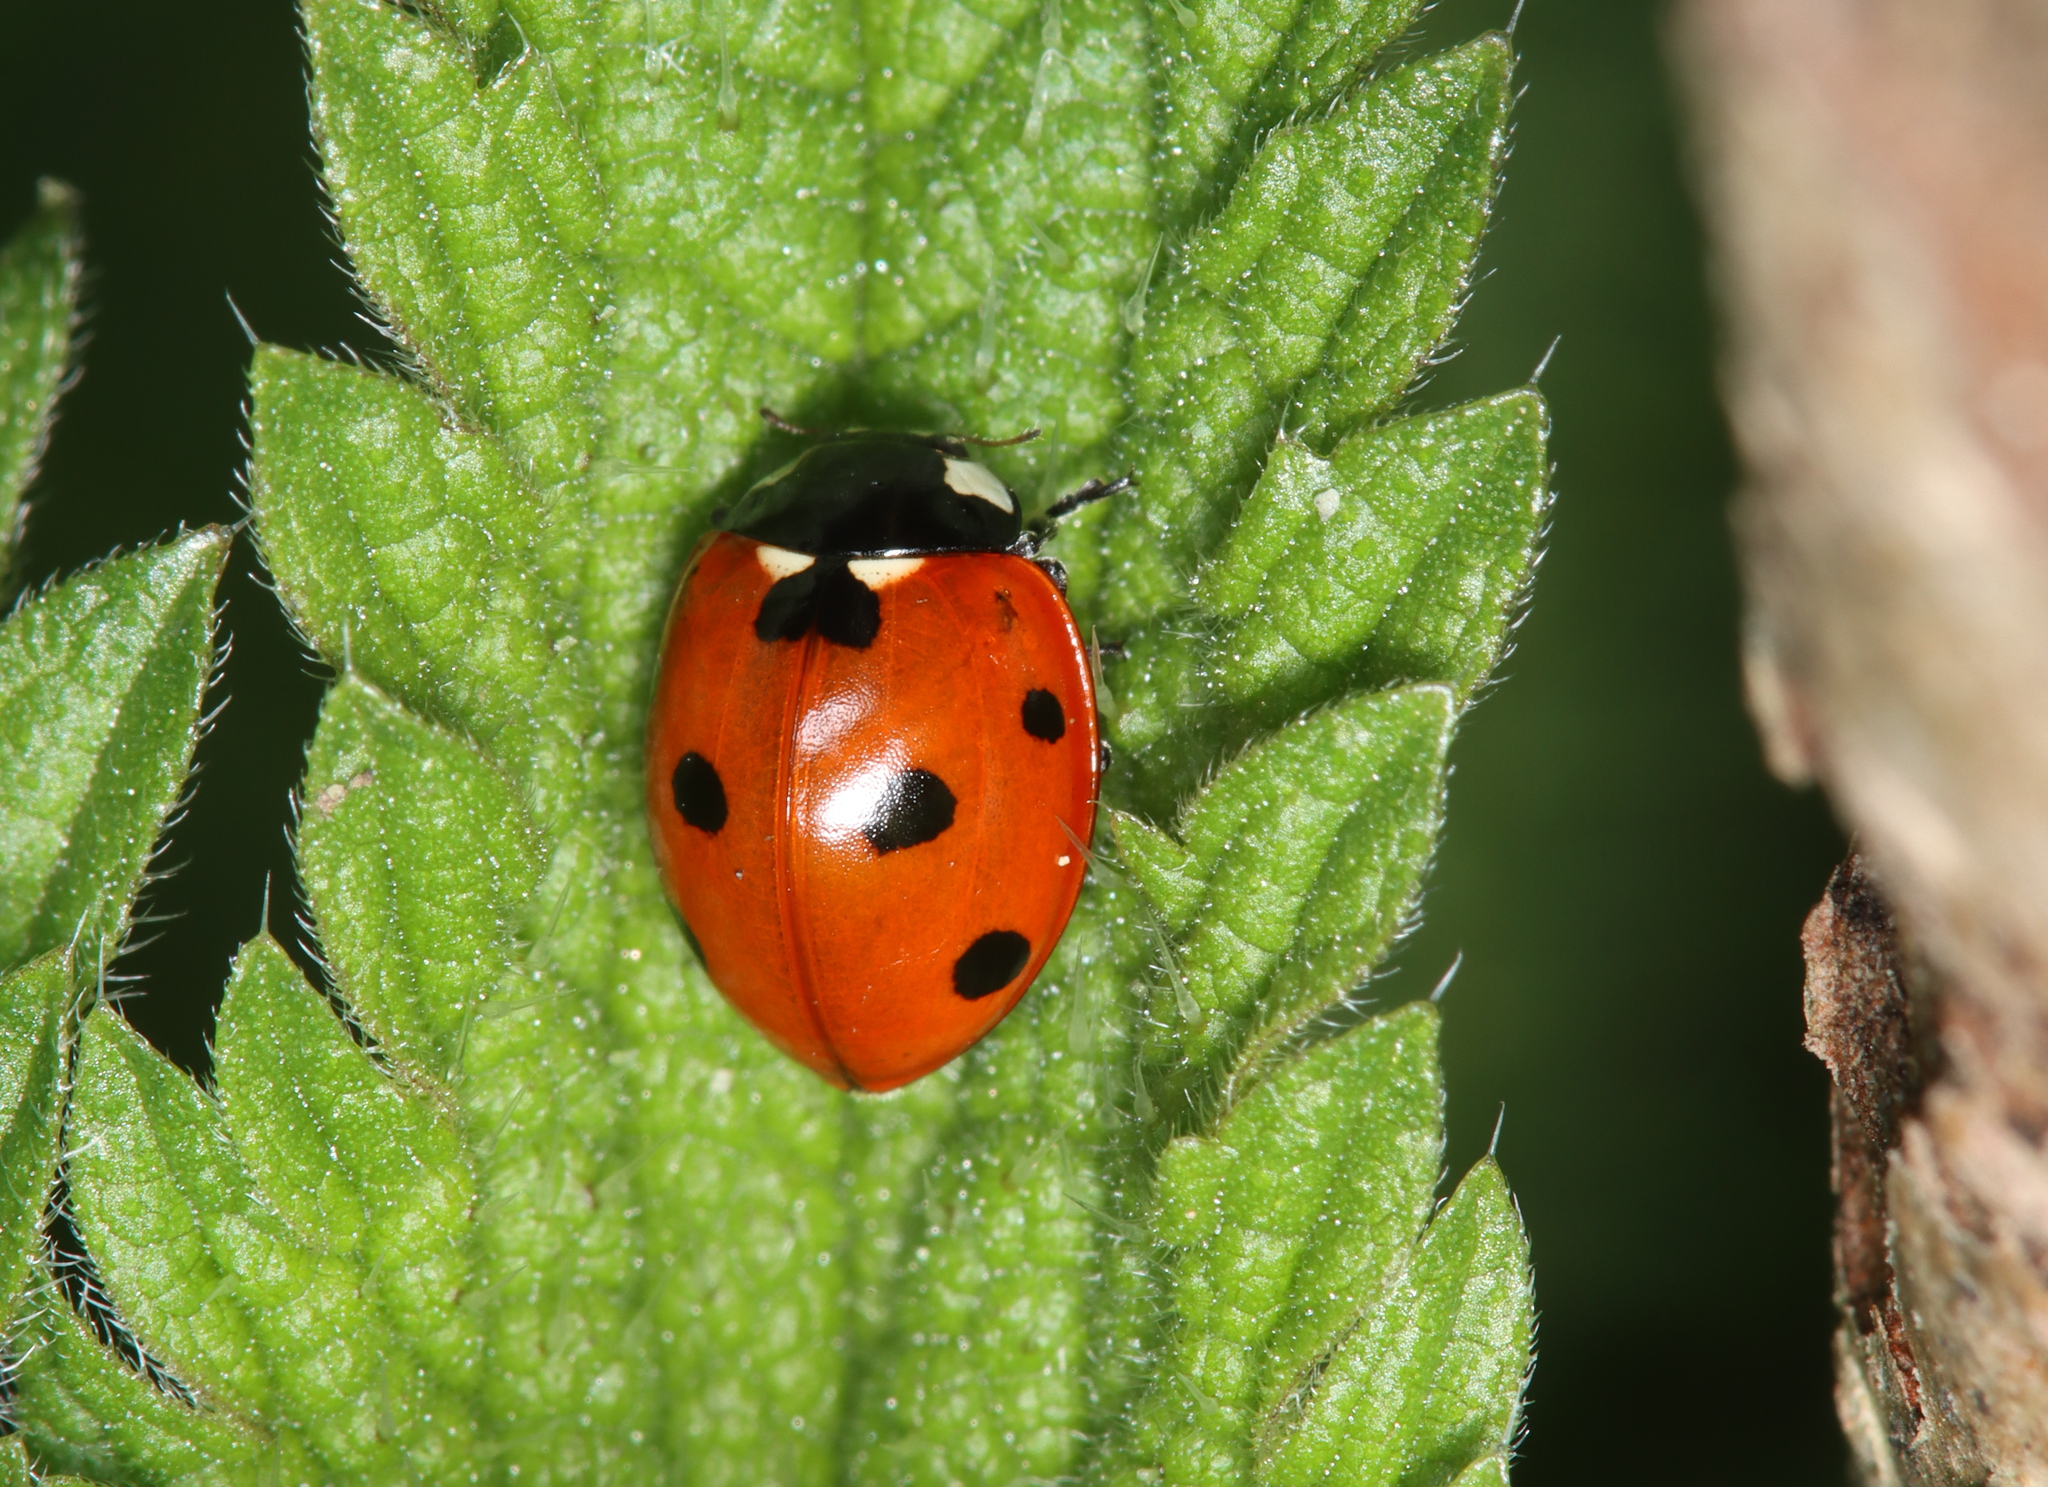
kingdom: Animalia
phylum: Arthropoda
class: Insecta
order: Coleoptera
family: Coccinellidae
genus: Coccinella
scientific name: Coccinella septempunctata
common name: Sevenspotted lady beetle
